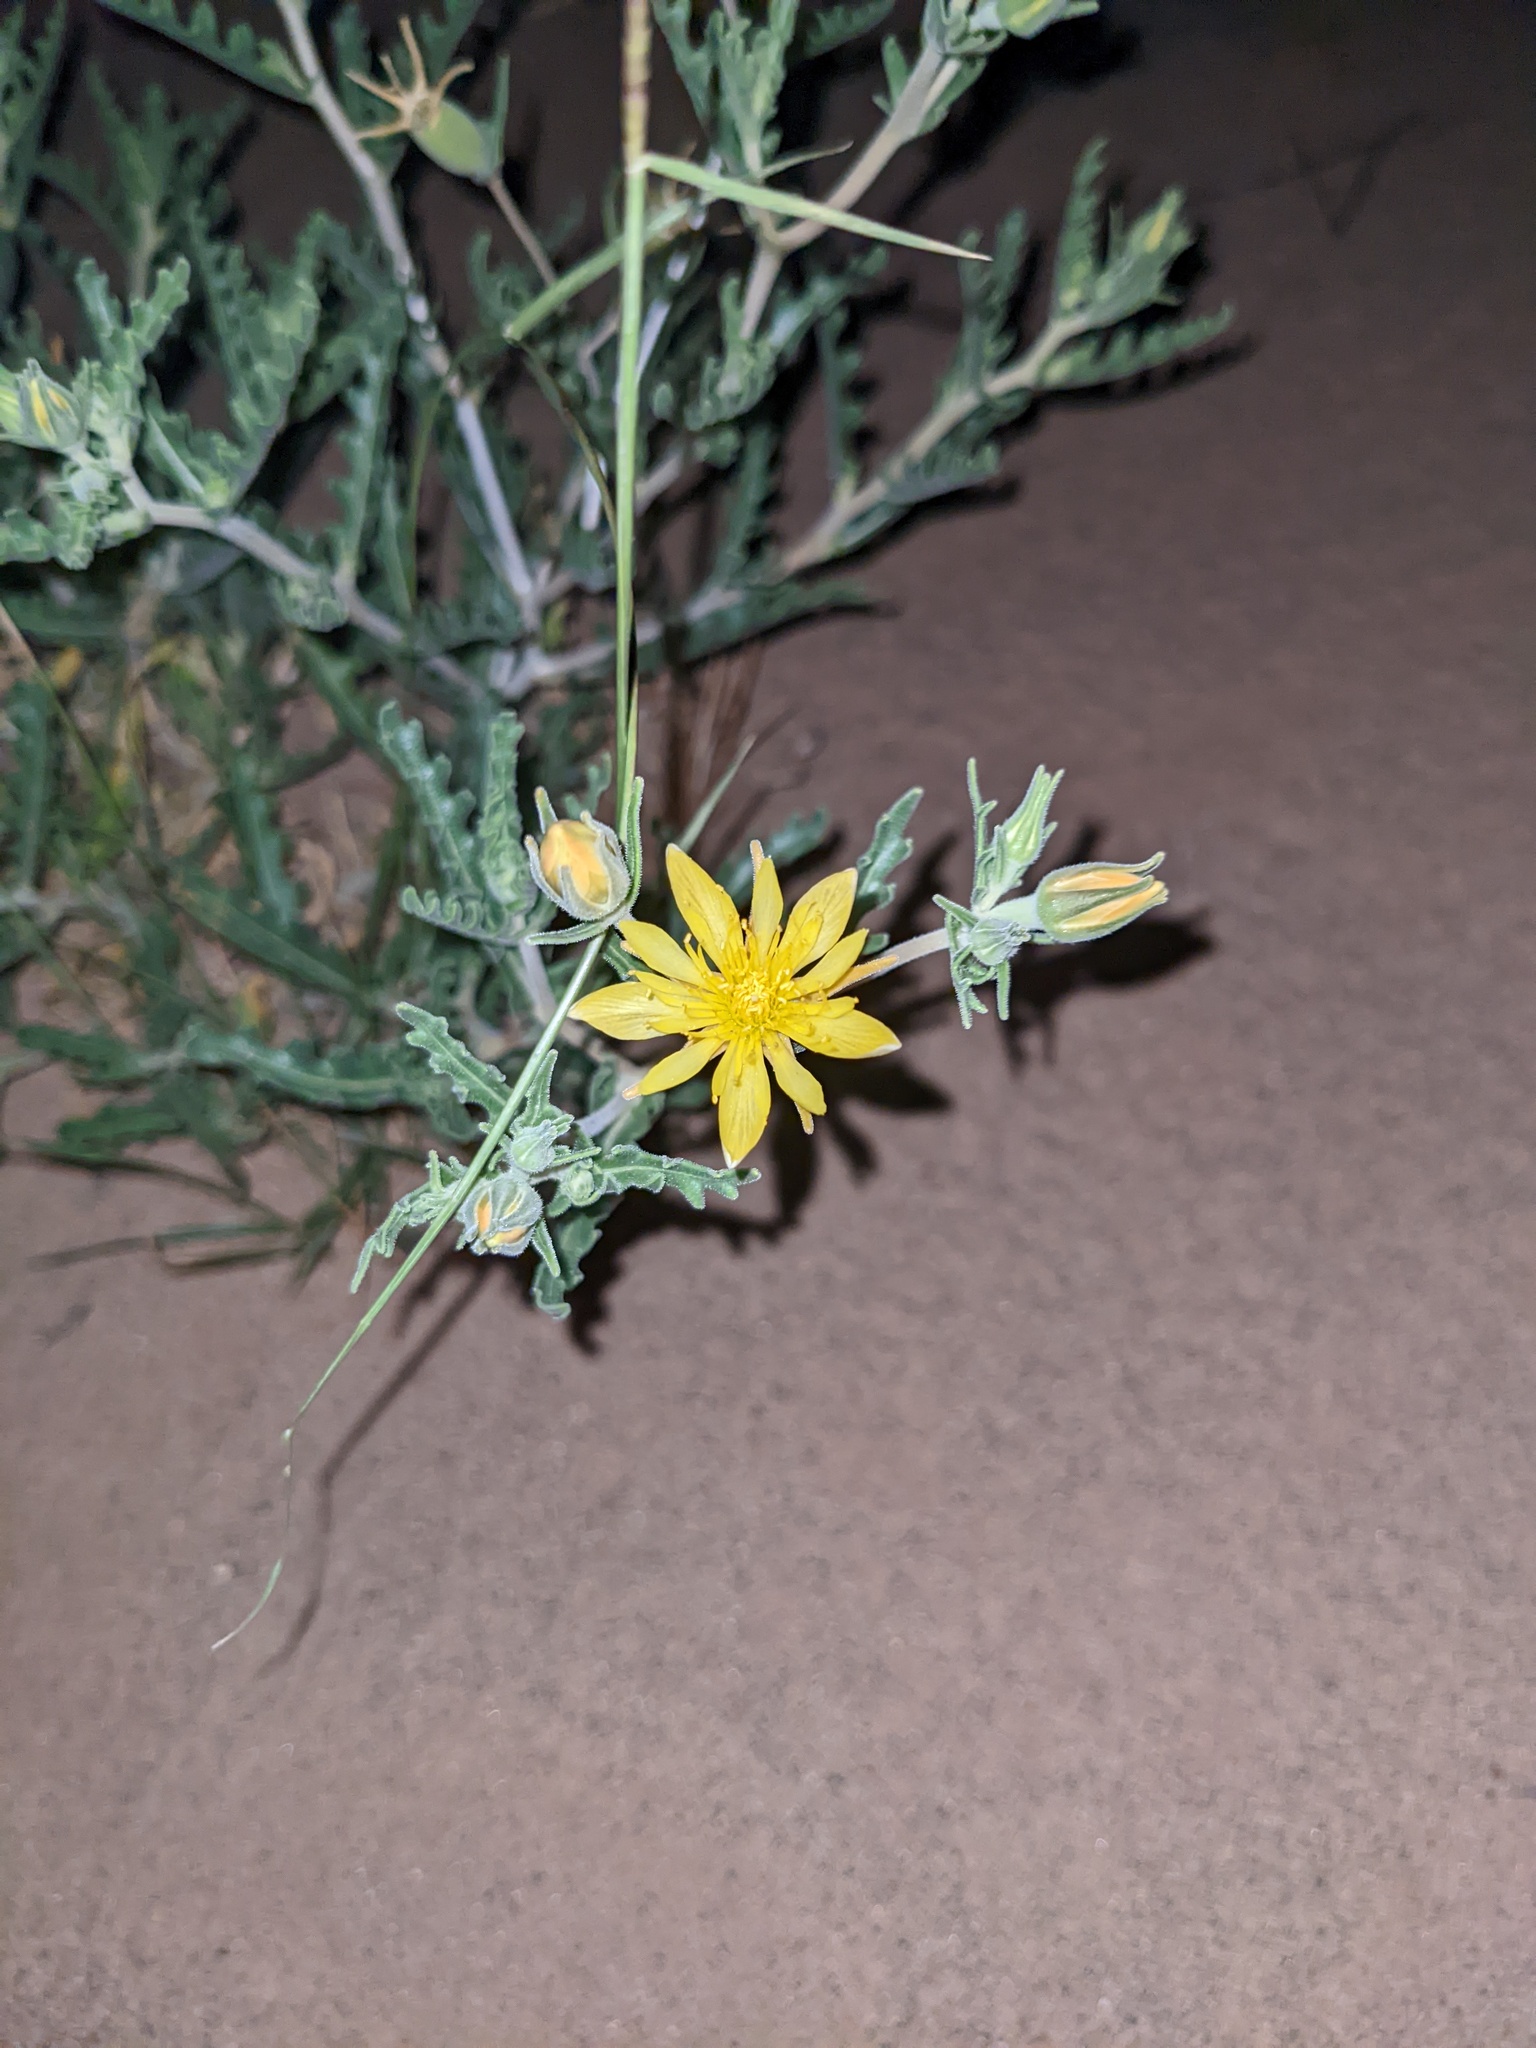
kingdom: Plantae
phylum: Tracheophyta
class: Magnoliopsida
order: Cornales
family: Loasaceae
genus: Mentzelia
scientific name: Mentzelia longiloba
